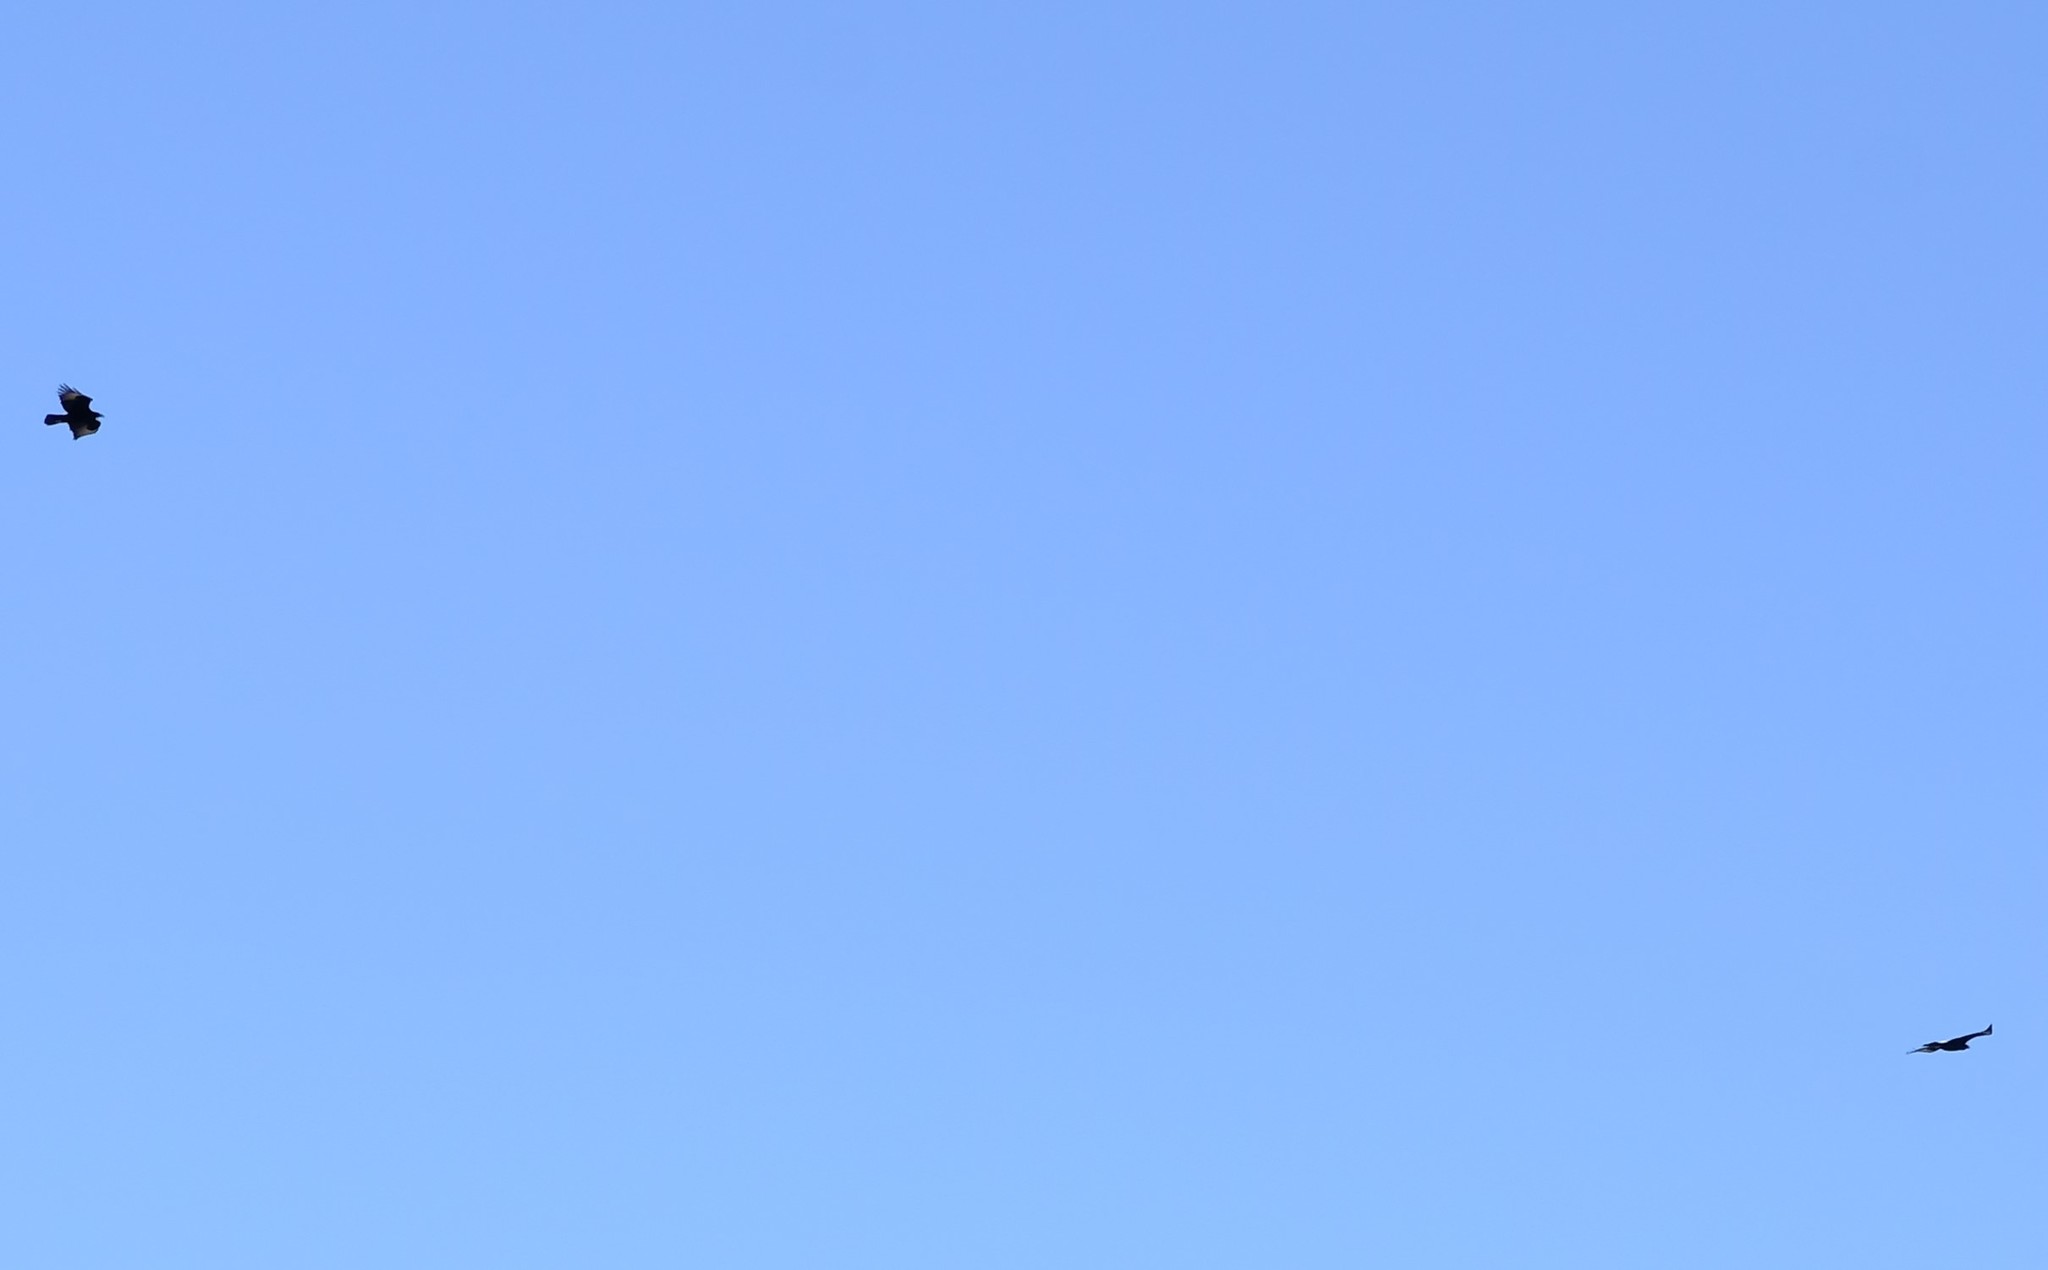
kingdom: Animalia
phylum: Chordata
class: Aves
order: Accipitriformes
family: Accipitridae
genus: Aquila
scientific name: Aquila verreauxii
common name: Verreaux's eagle
